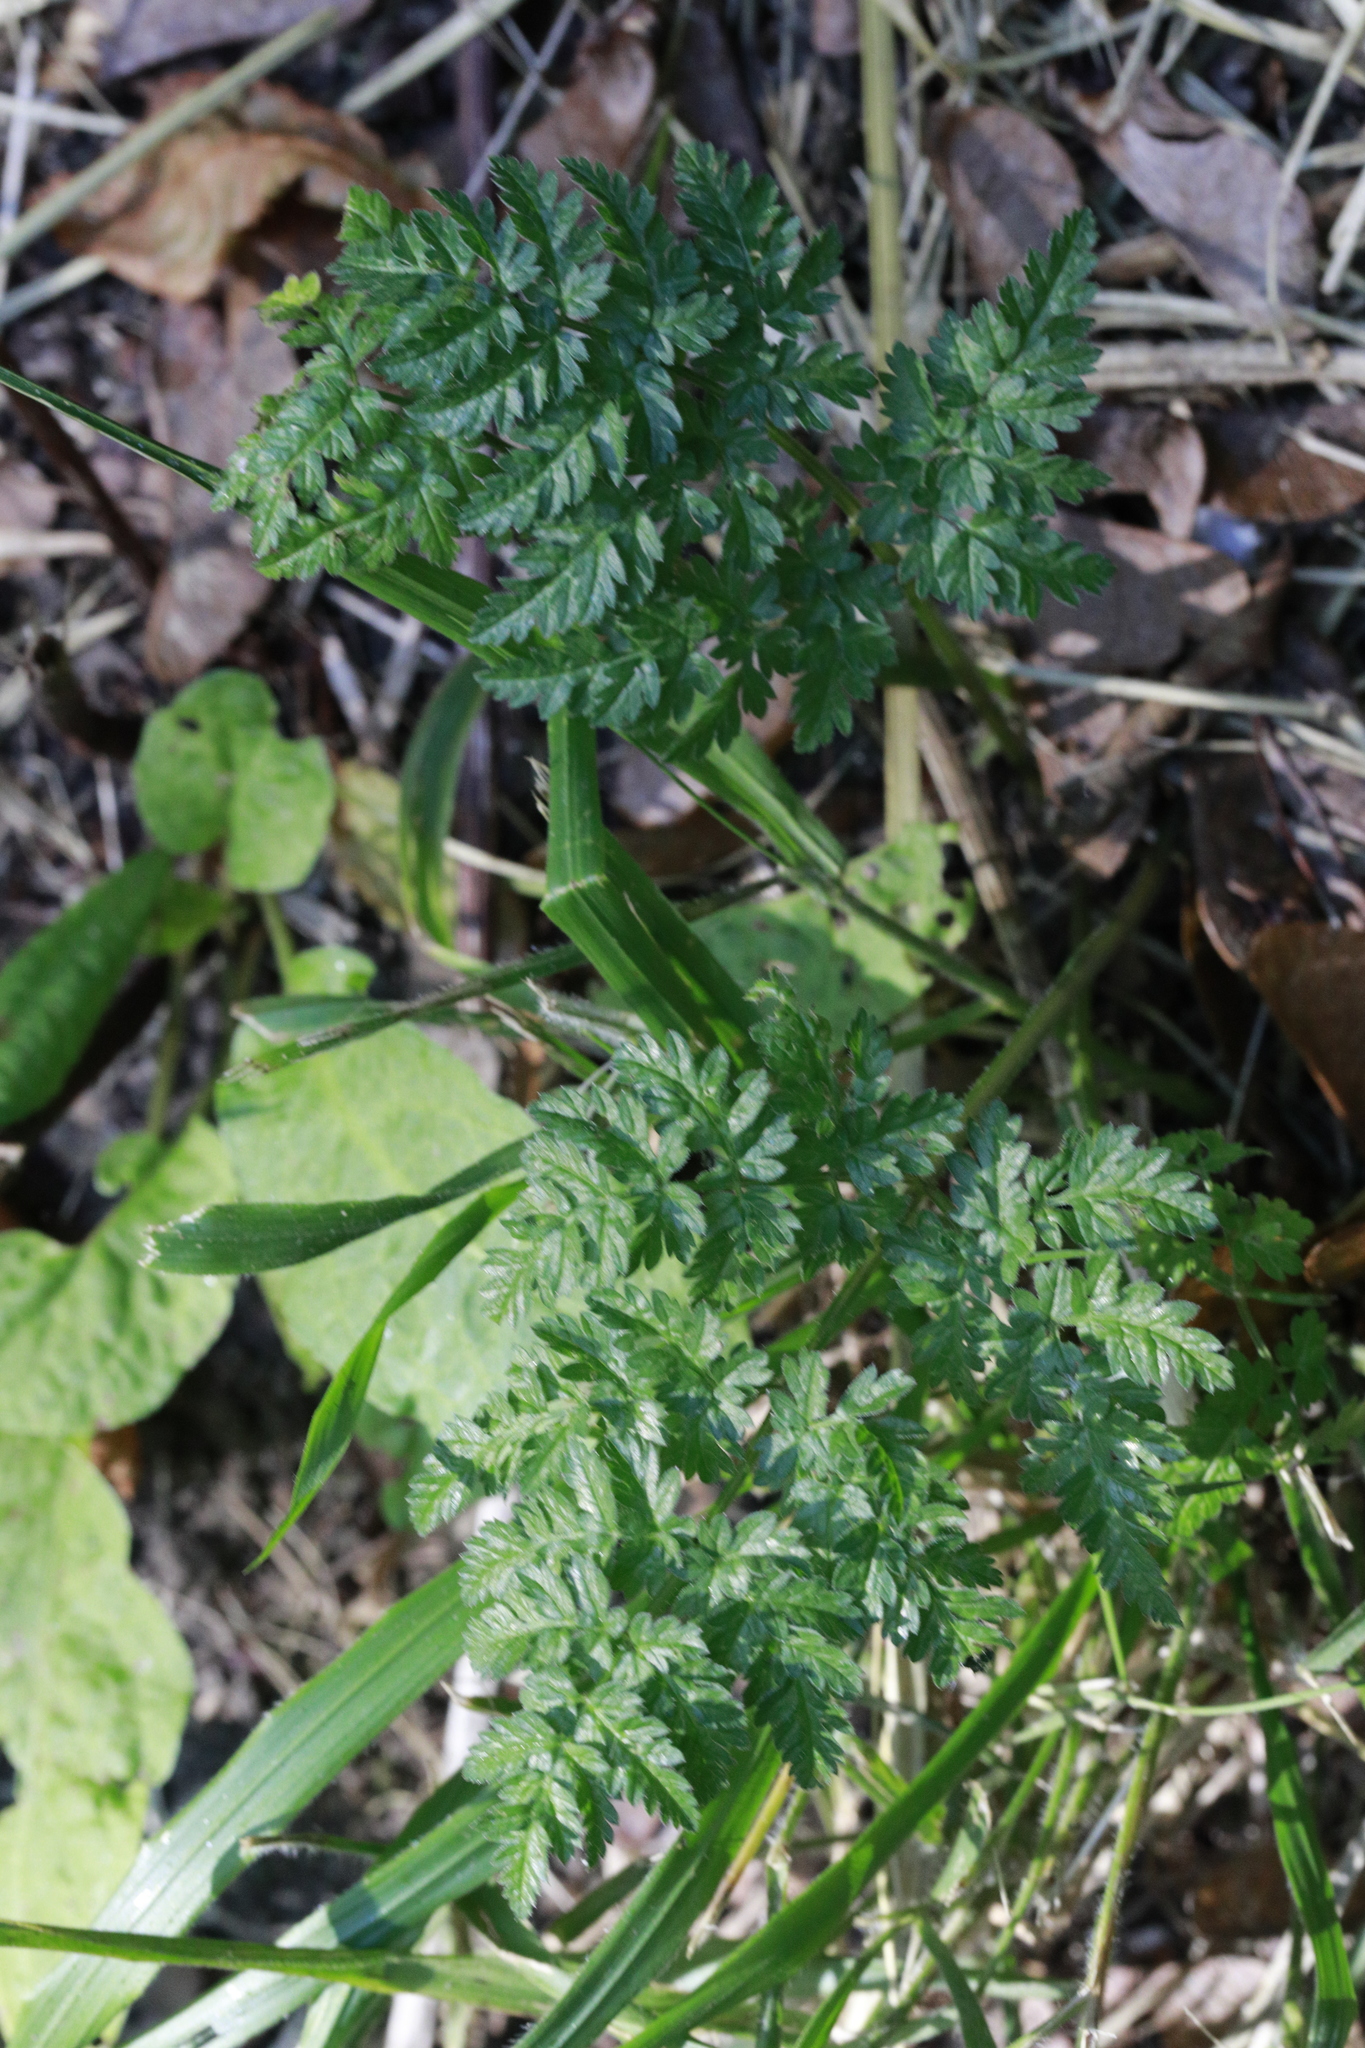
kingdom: Plantae
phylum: Tracheophyta
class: Magnoliopsida
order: Apiales
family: Apiaceae
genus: Anthriscus
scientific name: Anthriscus sylvestris
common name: Cow parsley
